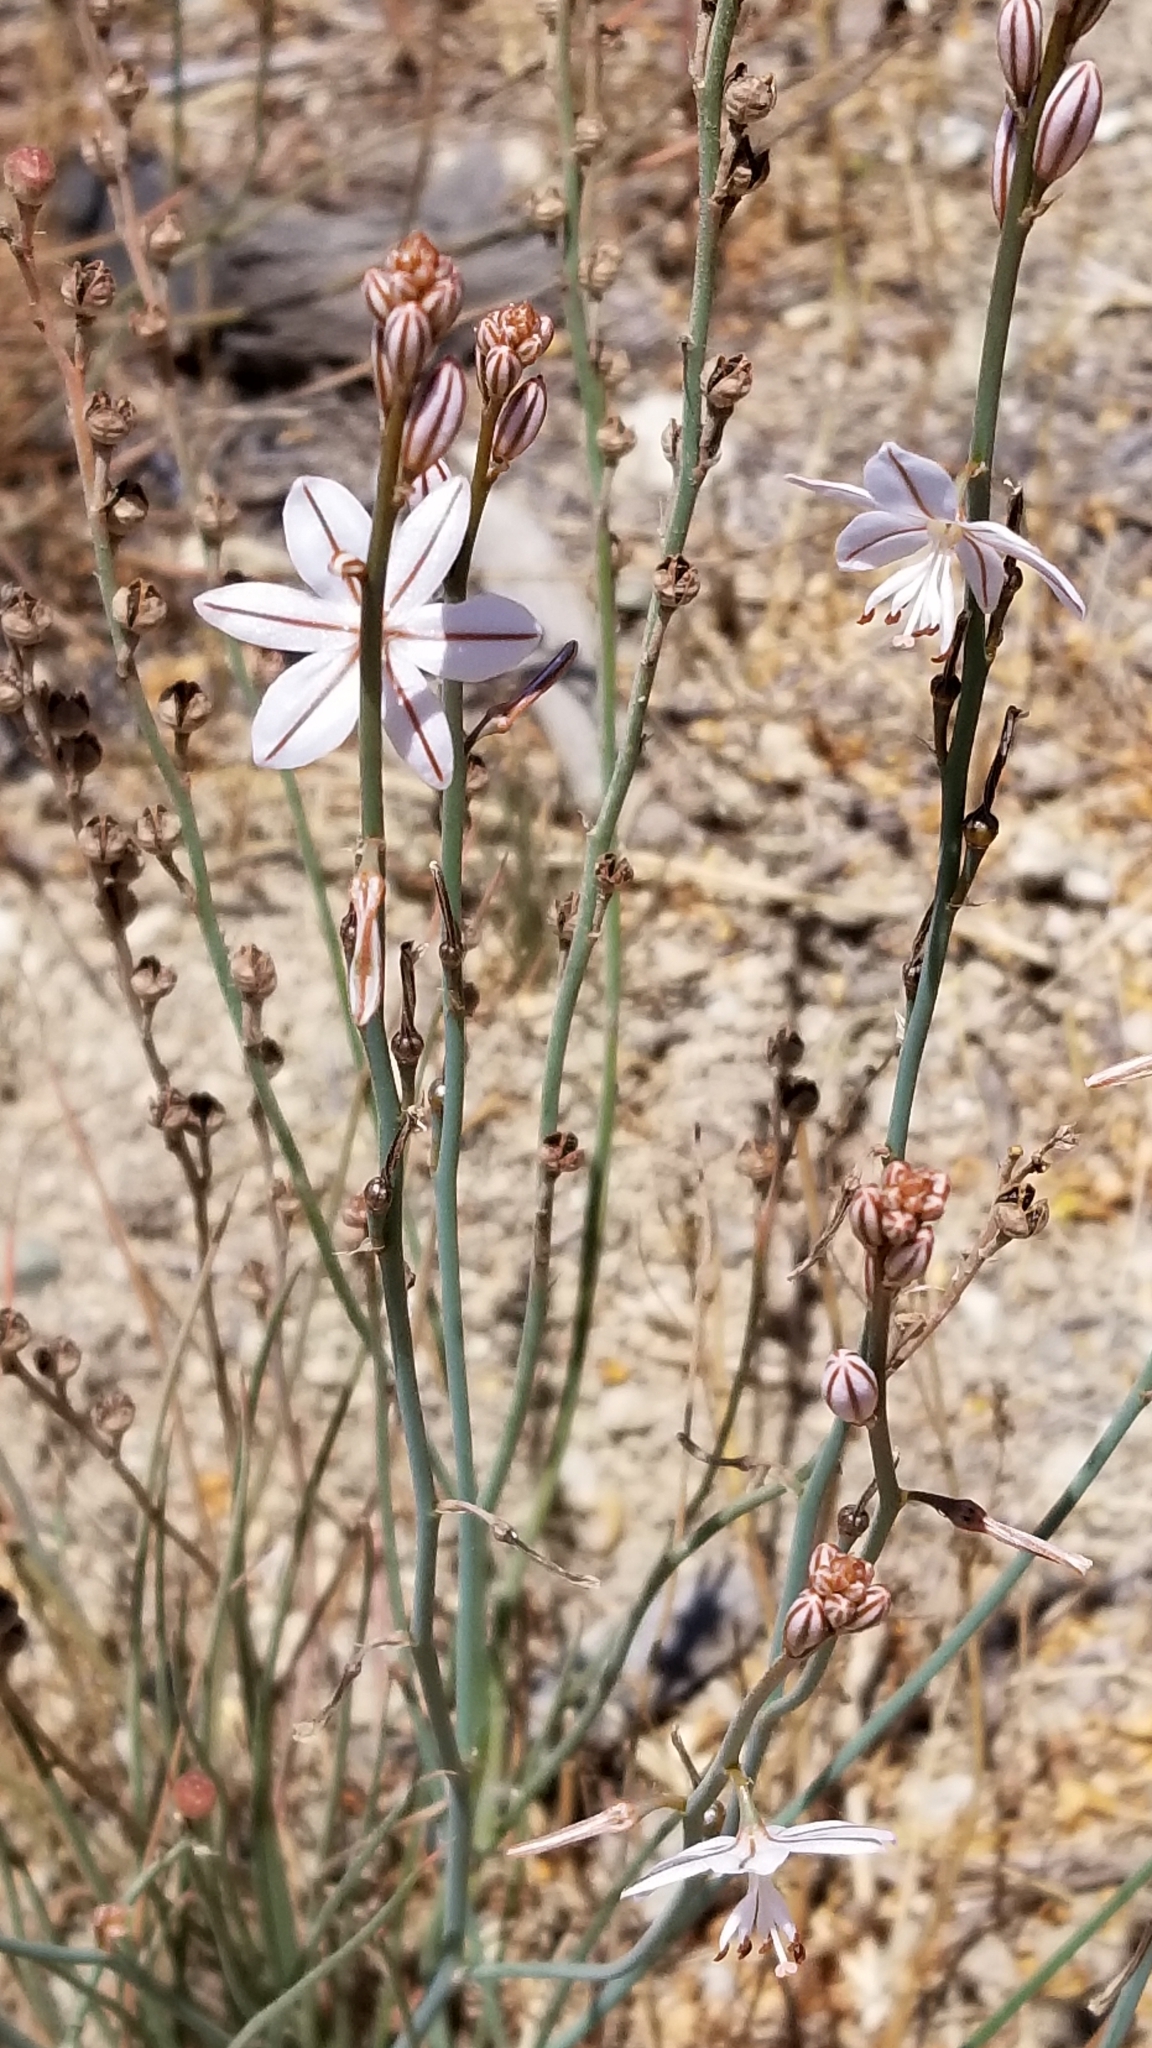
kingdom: Plantae
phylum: Tracheophyta
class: Liliopsida
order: Asparagales
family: Asphodelaceae
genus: Asphodelus
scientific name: Asphodelus fistulosus
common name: Onionweed
